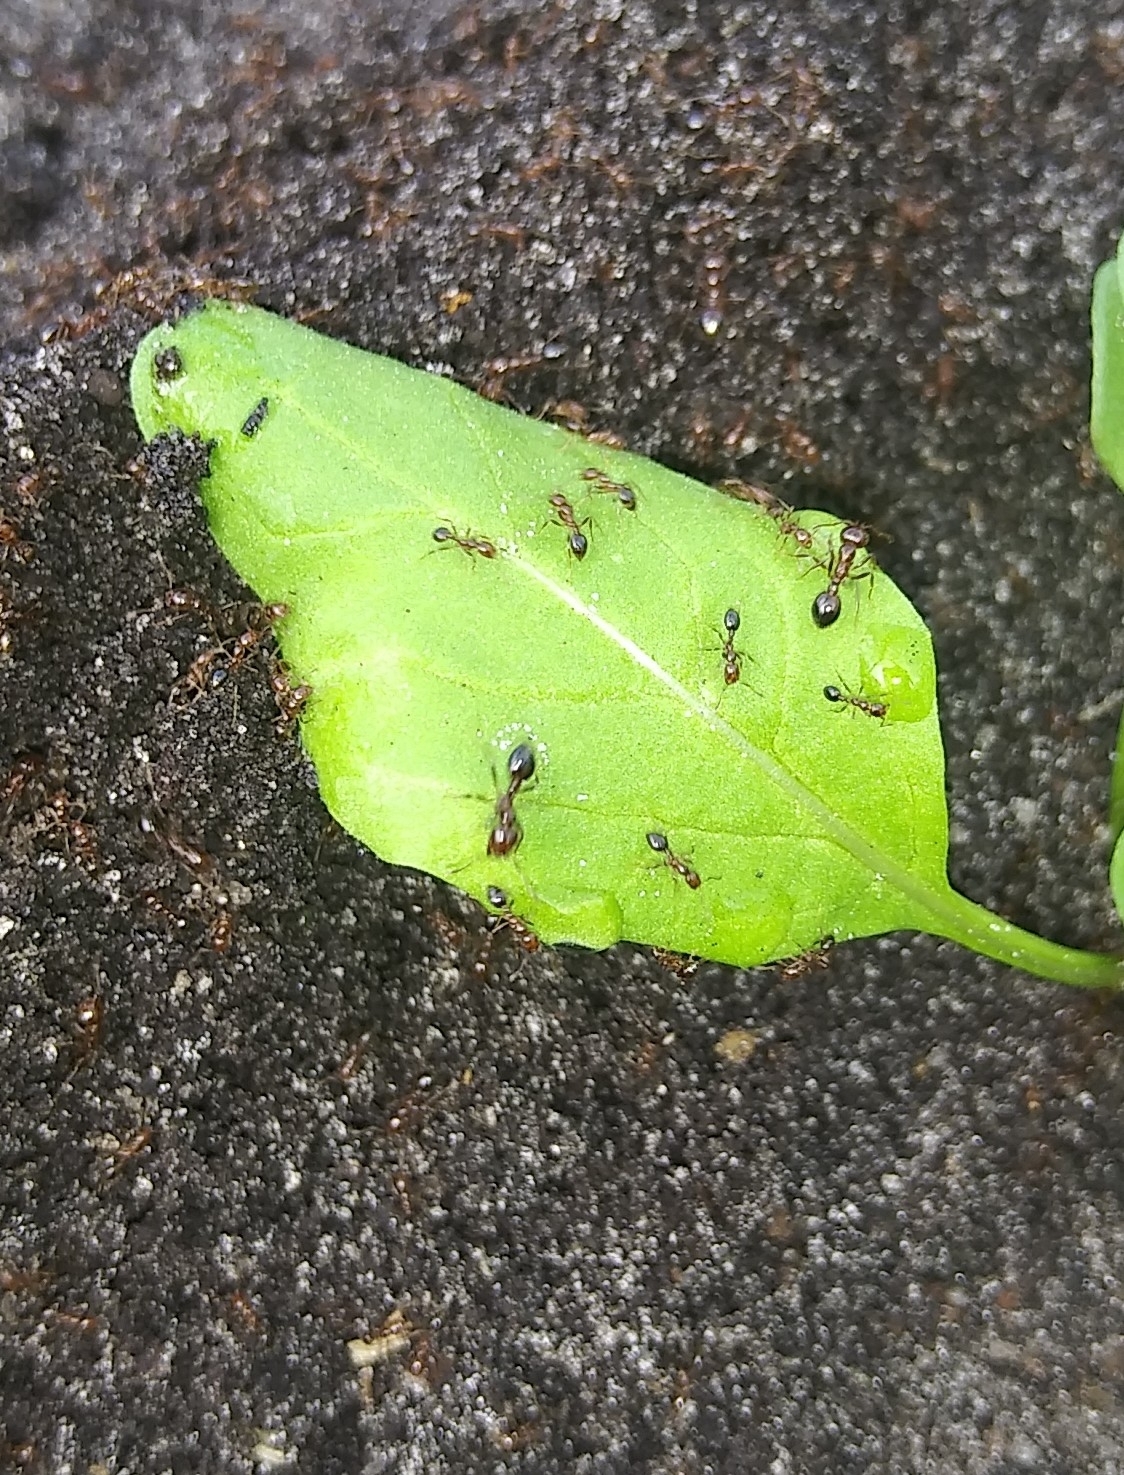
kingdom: Animalia
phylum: Arthropoda
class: Insecta
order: Hymenoptera
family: Formicidae
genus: Solenopsis
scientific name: Solenopsis invicta
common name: Red imported fire ant
